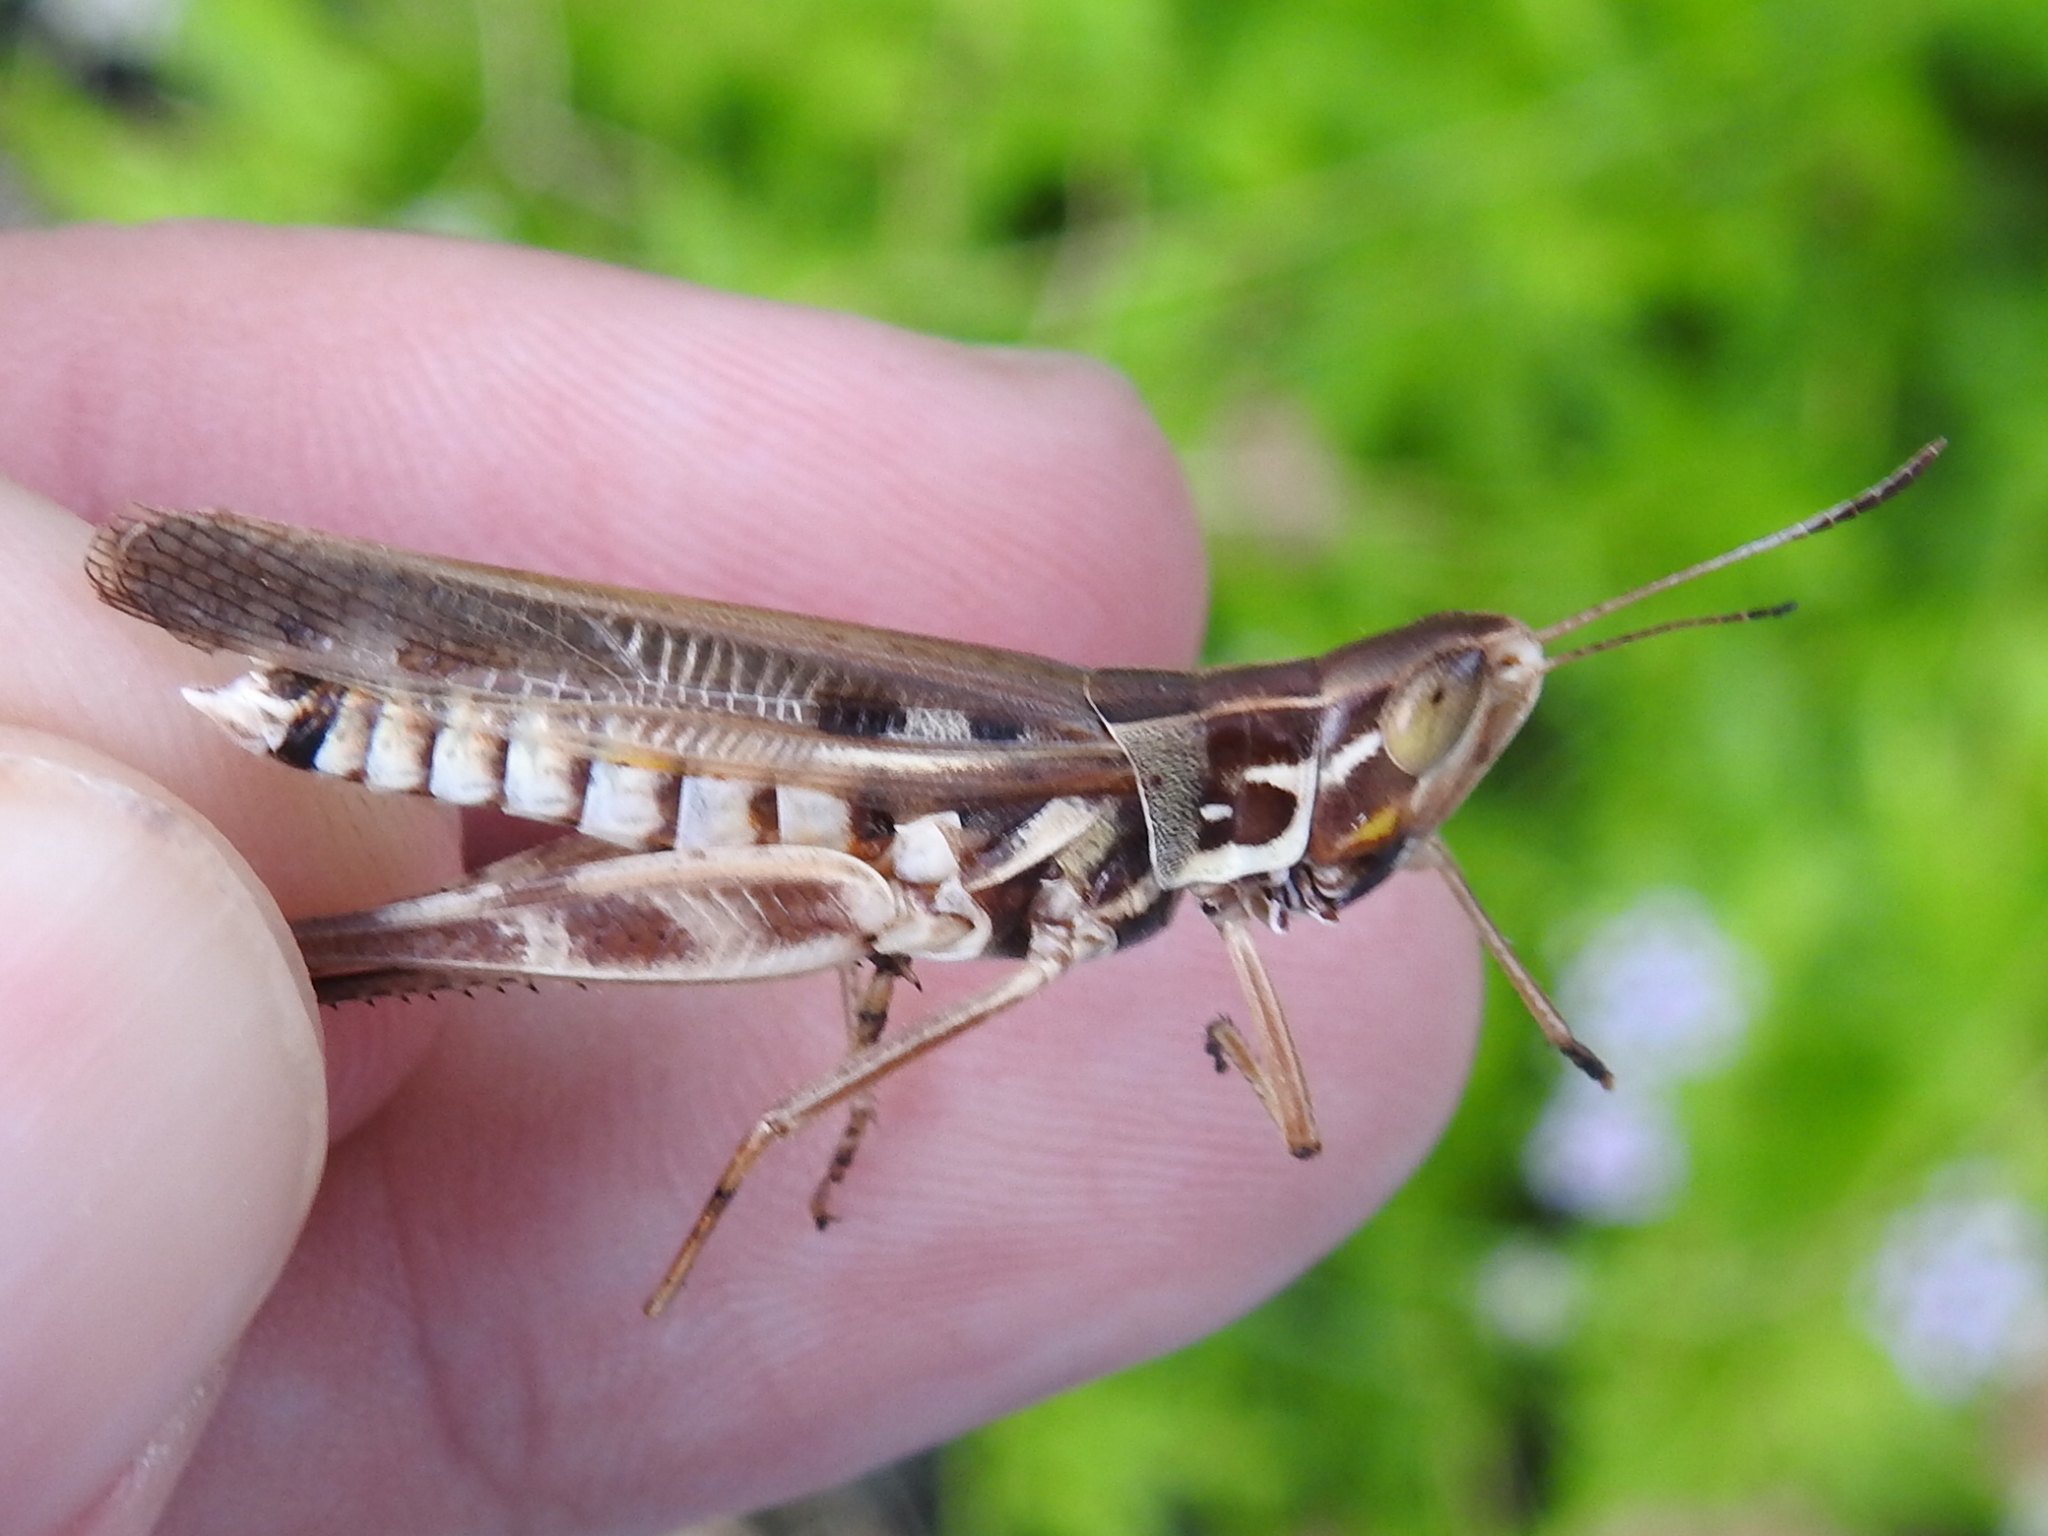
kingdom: Animalia
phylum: Arthropoda
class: Insecta
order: Orthoptera
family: Acrididae
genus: Syrbula
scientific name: Syrbula admirabilis
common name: Handsome grasshopper
